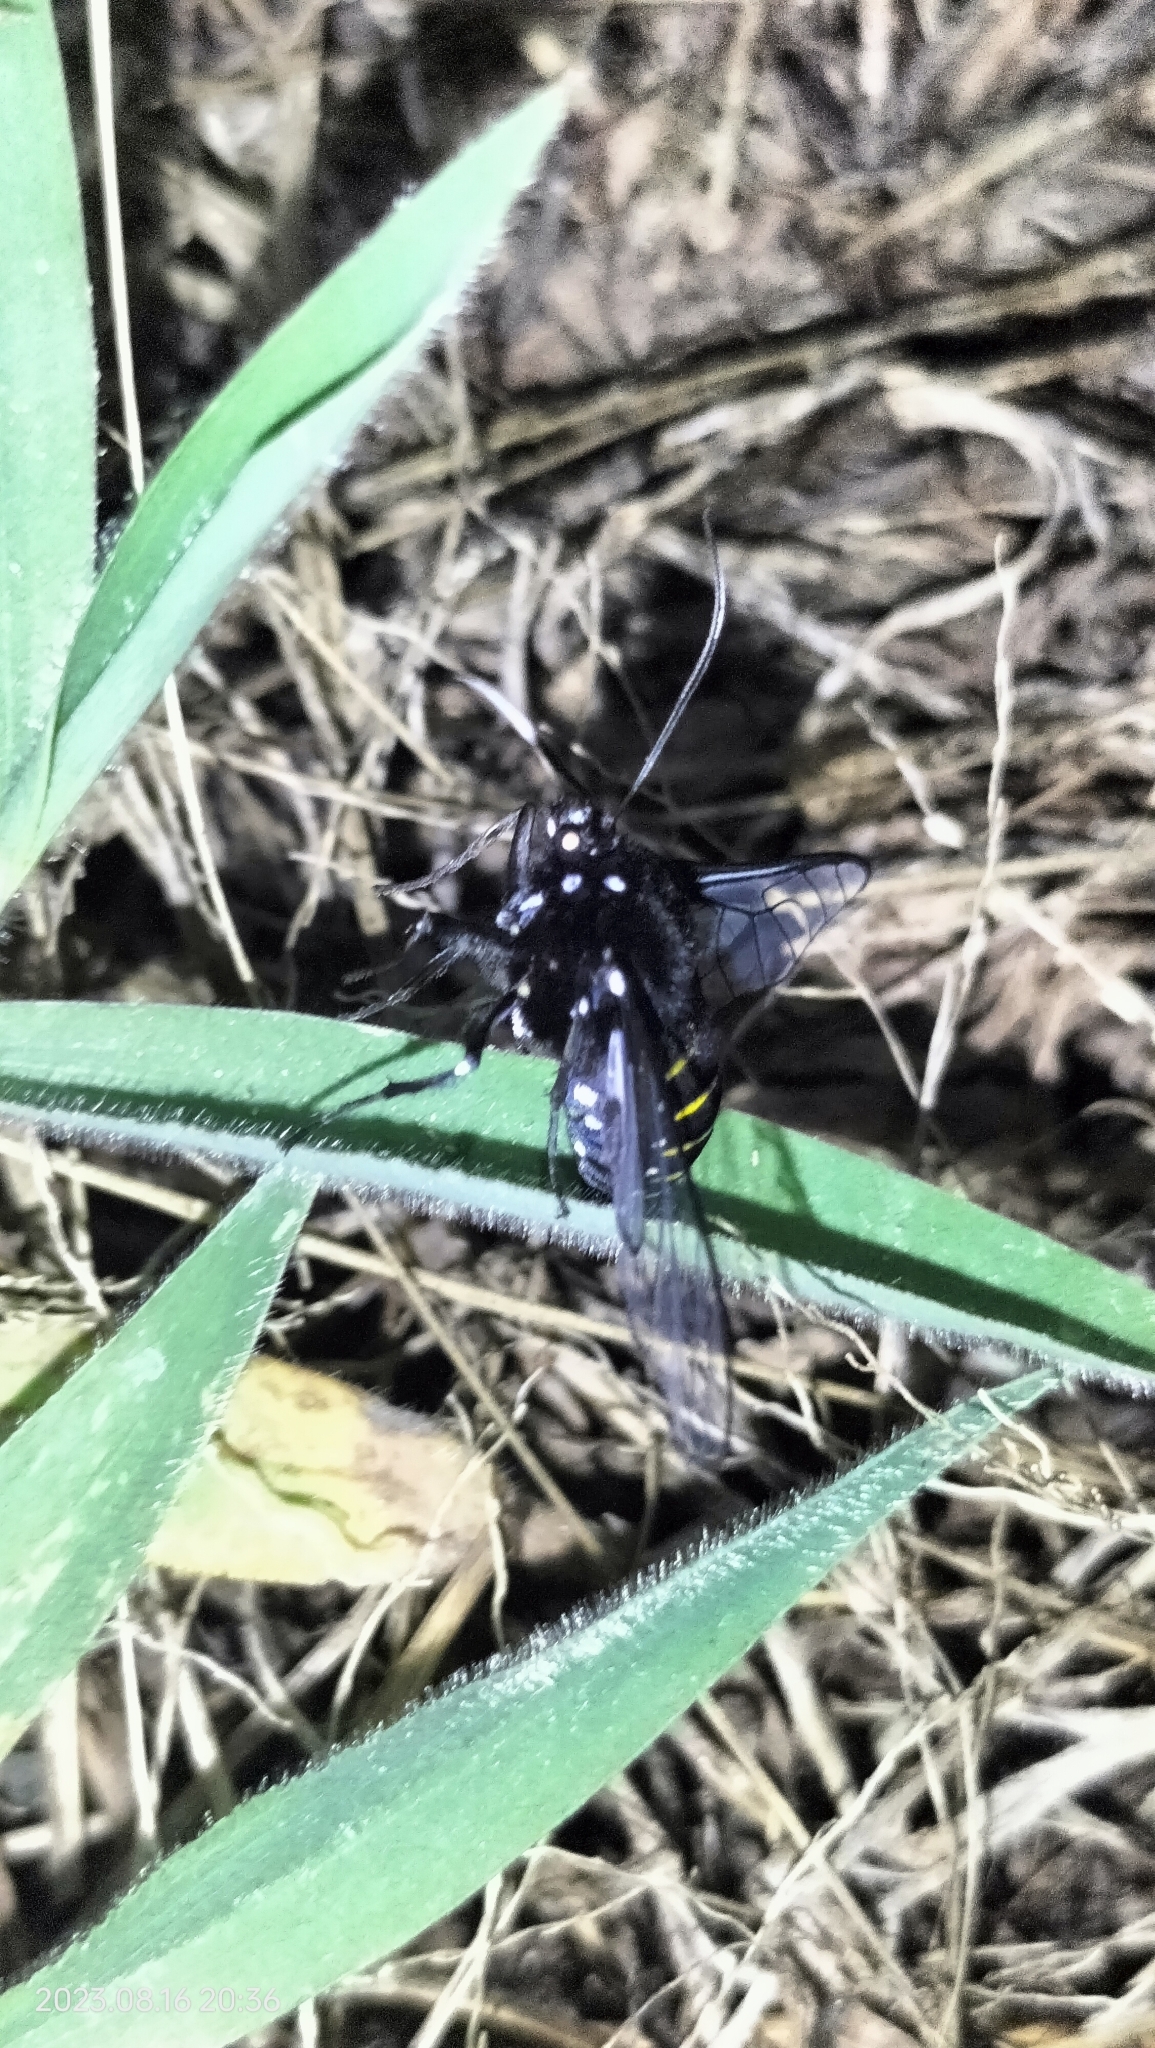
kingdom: Animalia
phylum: Arthropoda
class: Insecta
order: Lepidoptera
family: Erebidae
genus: Homoeocera
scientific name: Homoeocera crassa
